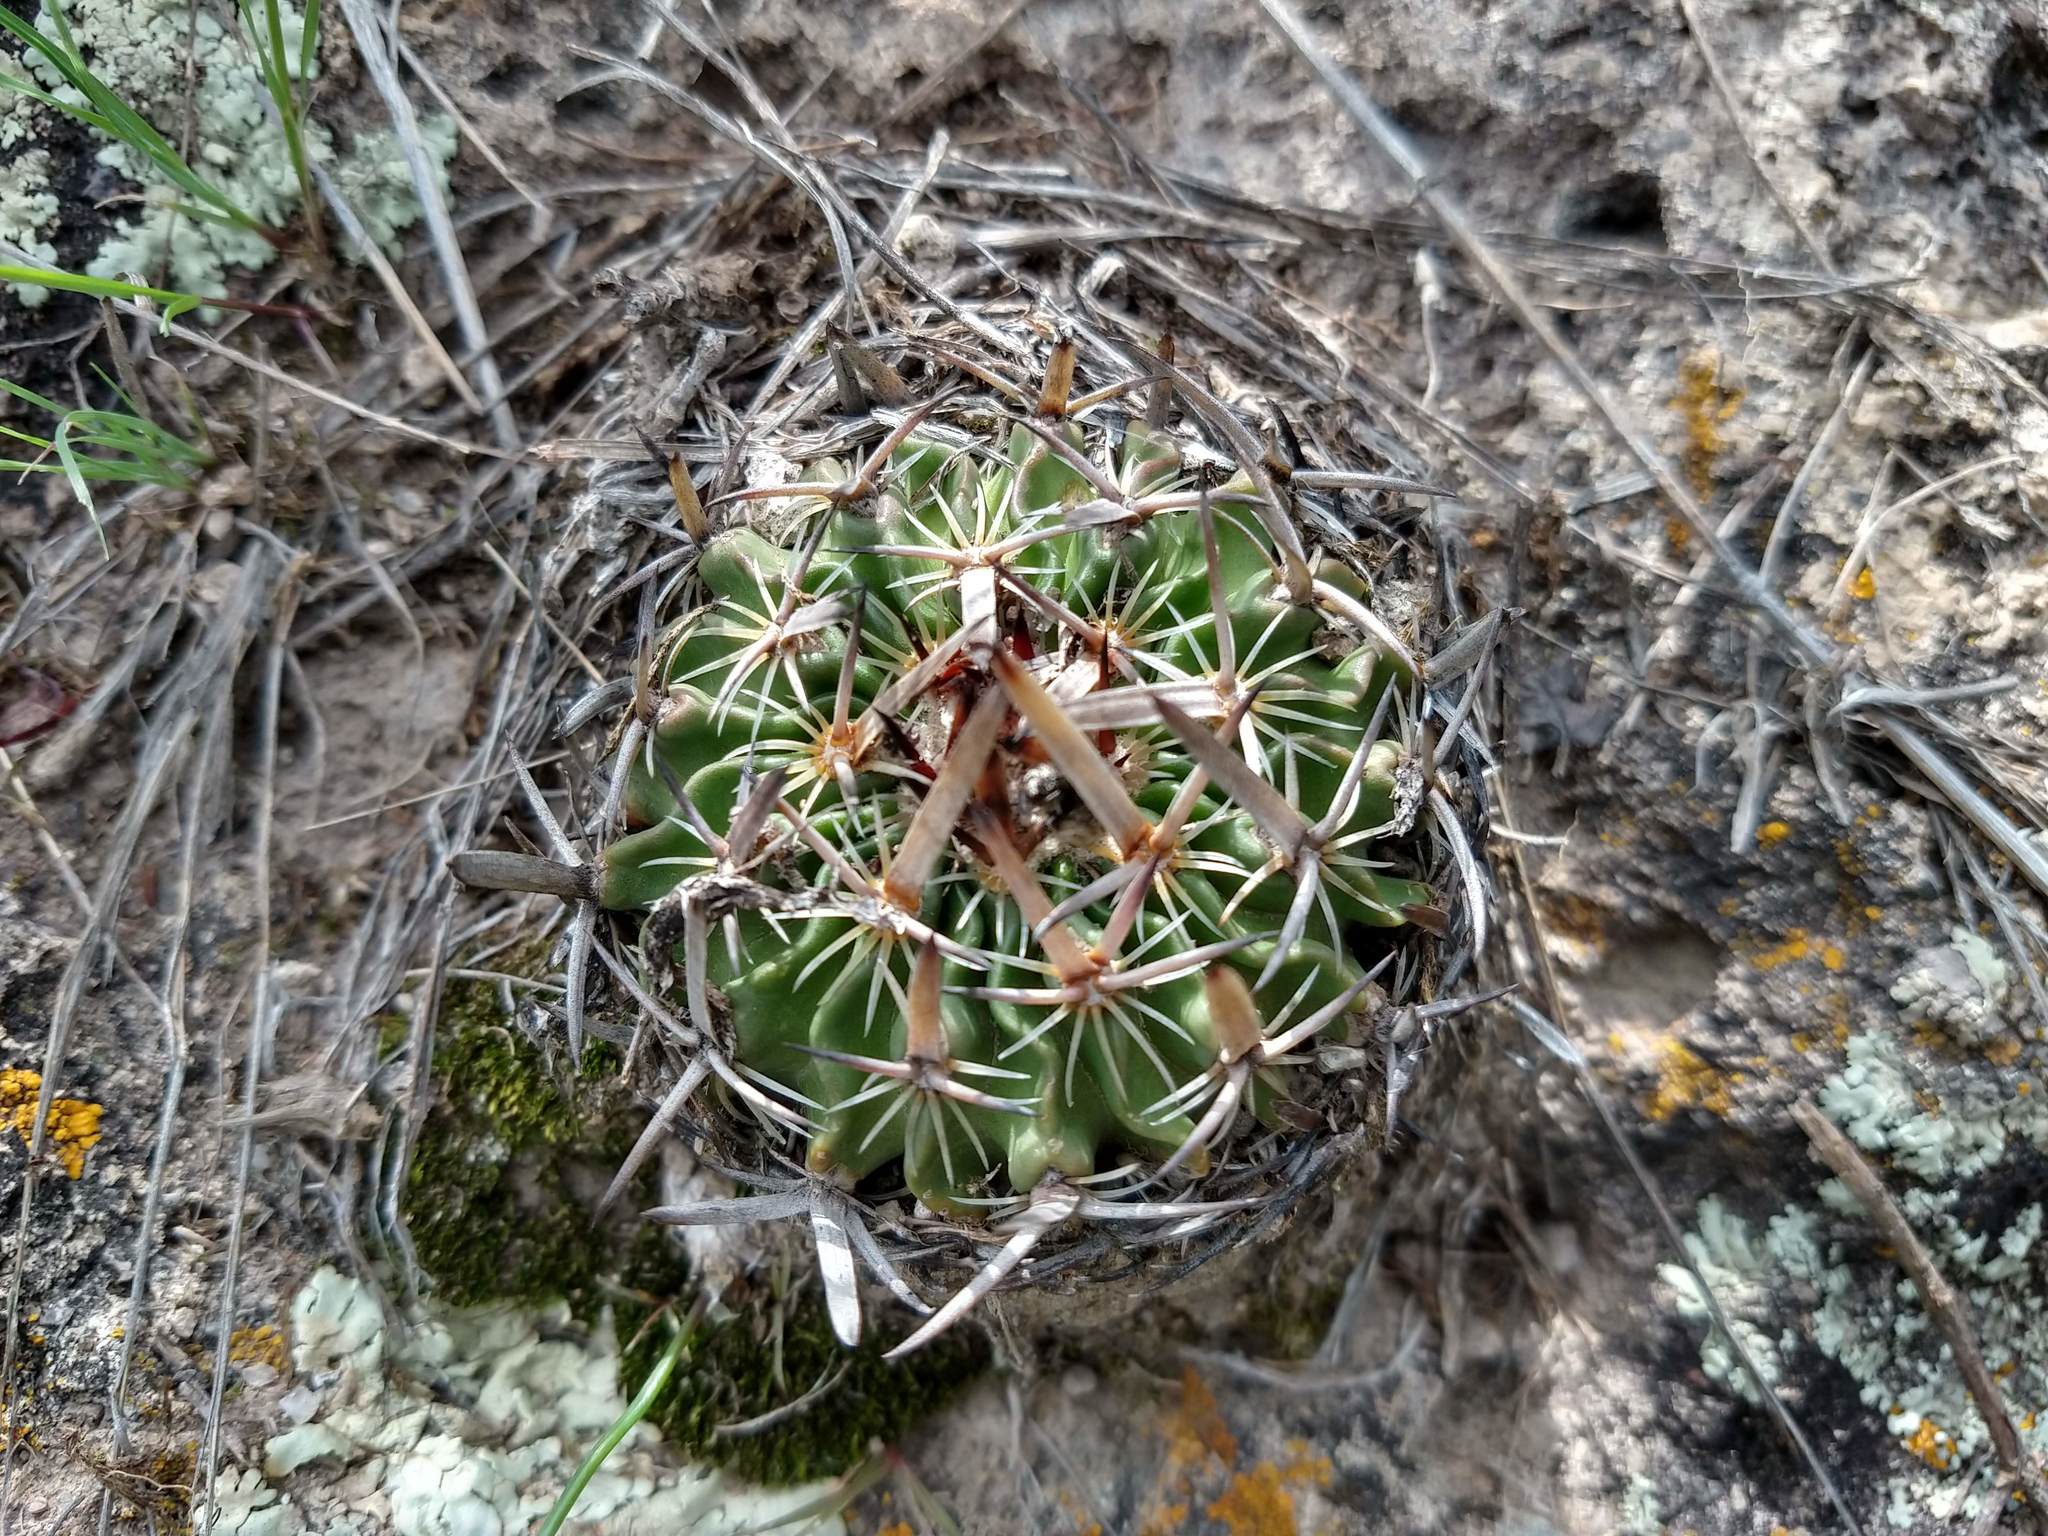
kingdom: Plantae
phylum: Tracheophyta
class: Magnoliopsida
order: Caryophyllales
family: Cactaceae
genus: Stenocactus
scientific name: Stenocactus multicostatus
